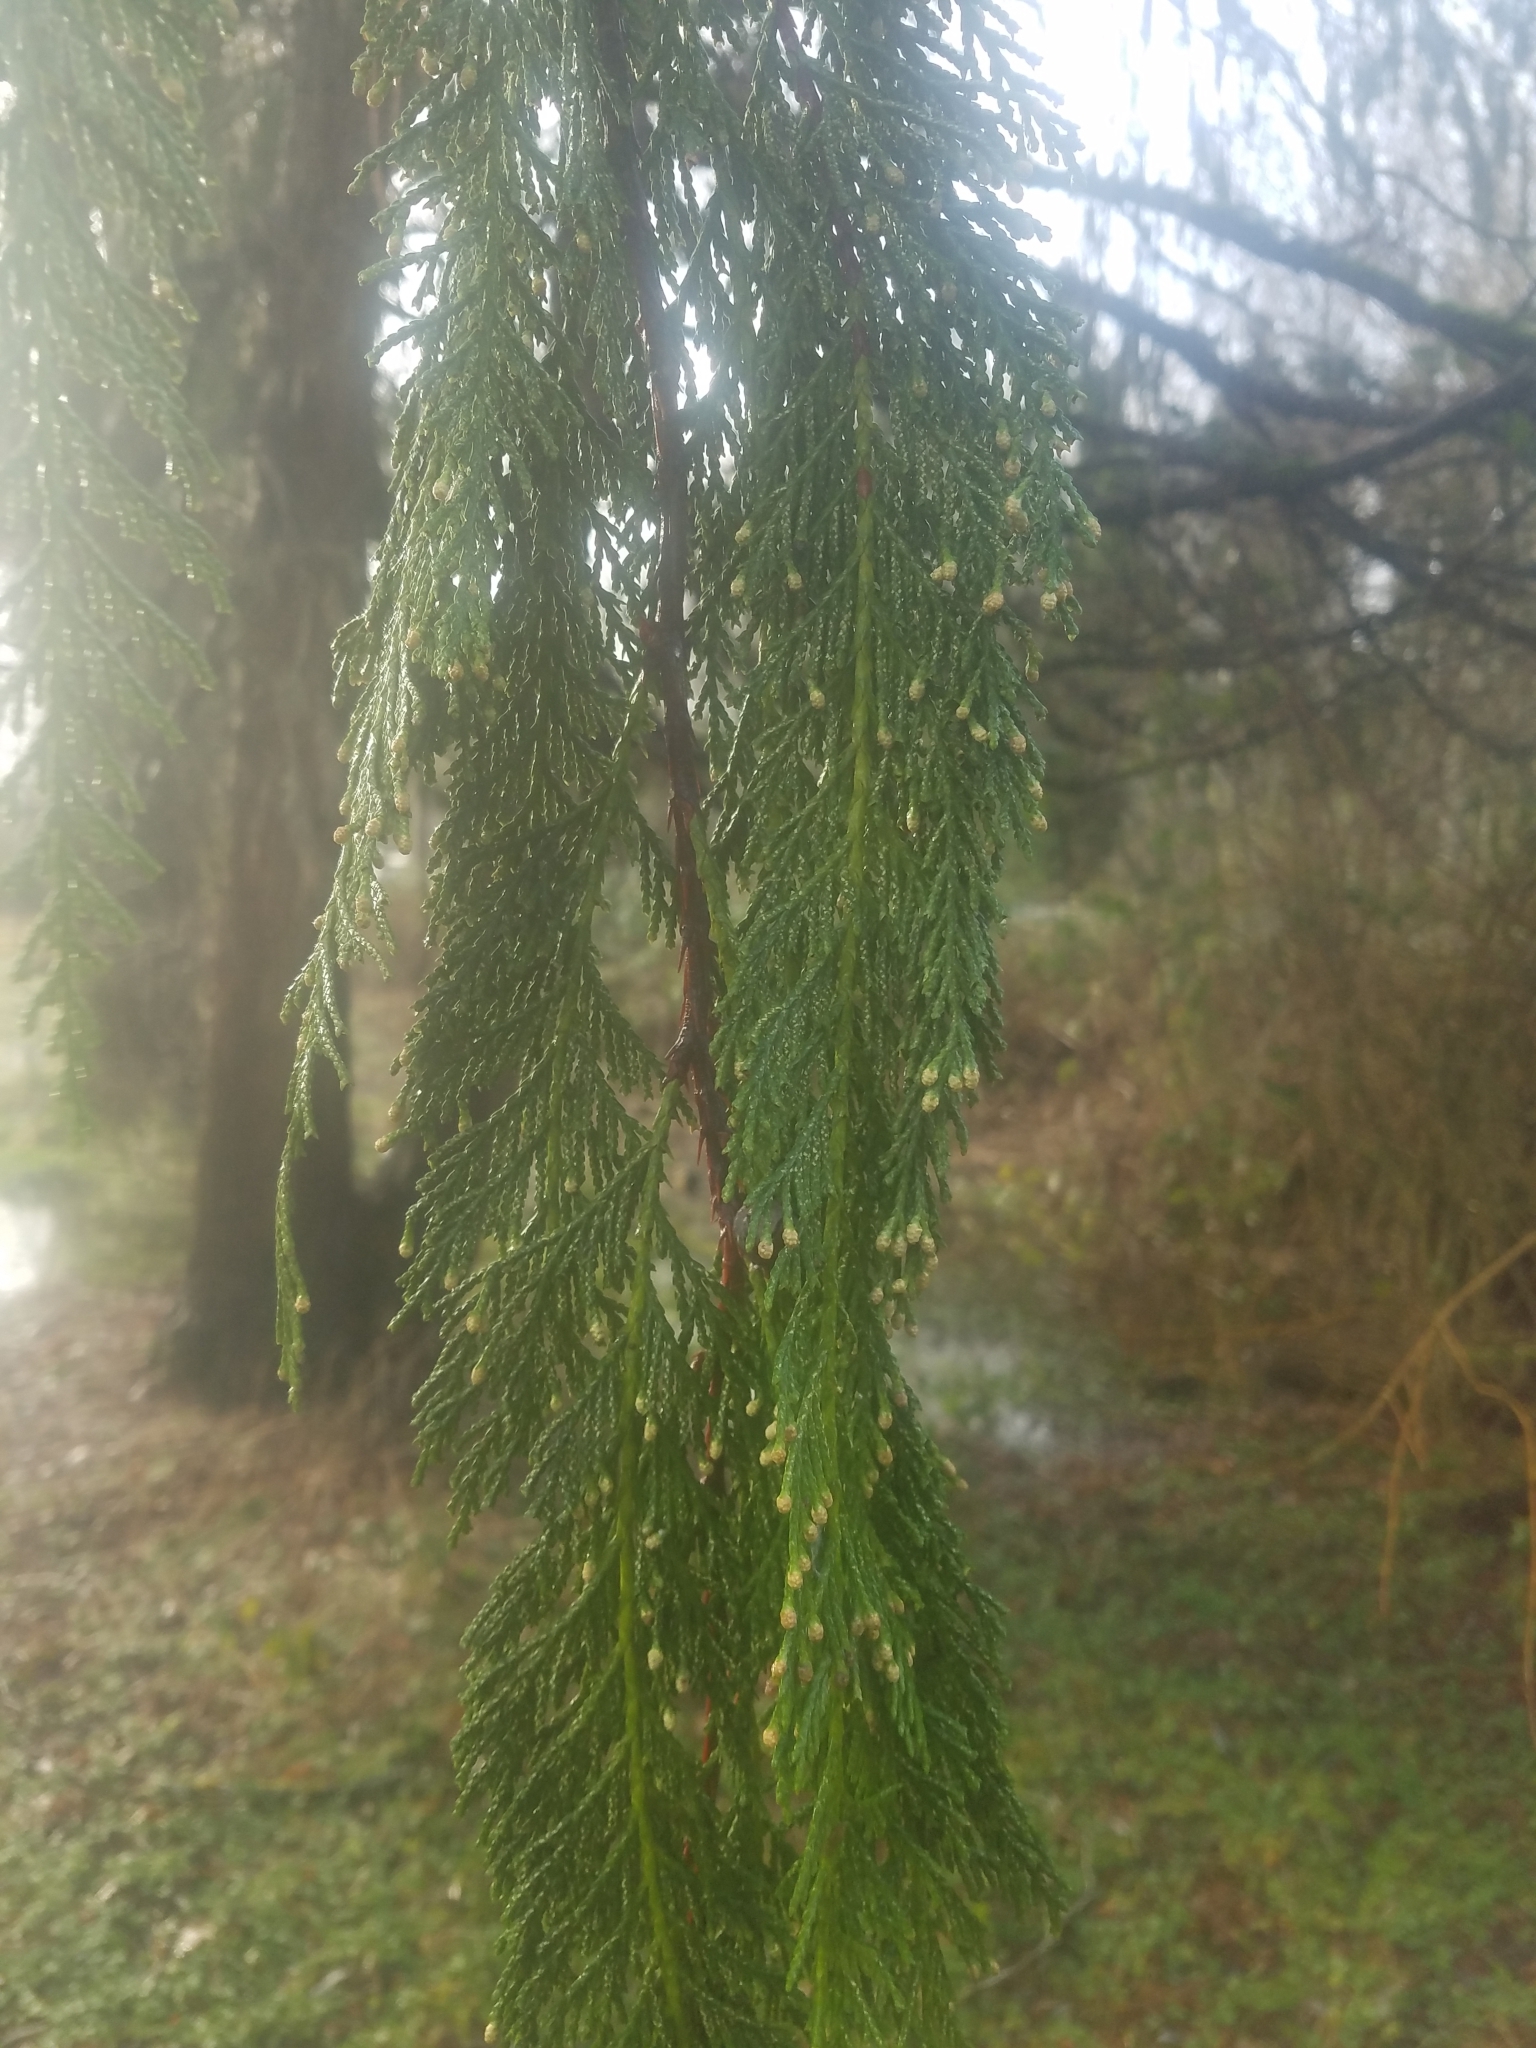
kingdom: Plantae
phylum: Tracheophyta
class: Pinopsida
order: Pinales
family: Cupressaceae
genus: Xanthocyparis
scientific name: Xanthocyparis nootkatensis
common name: Nootka cypress
